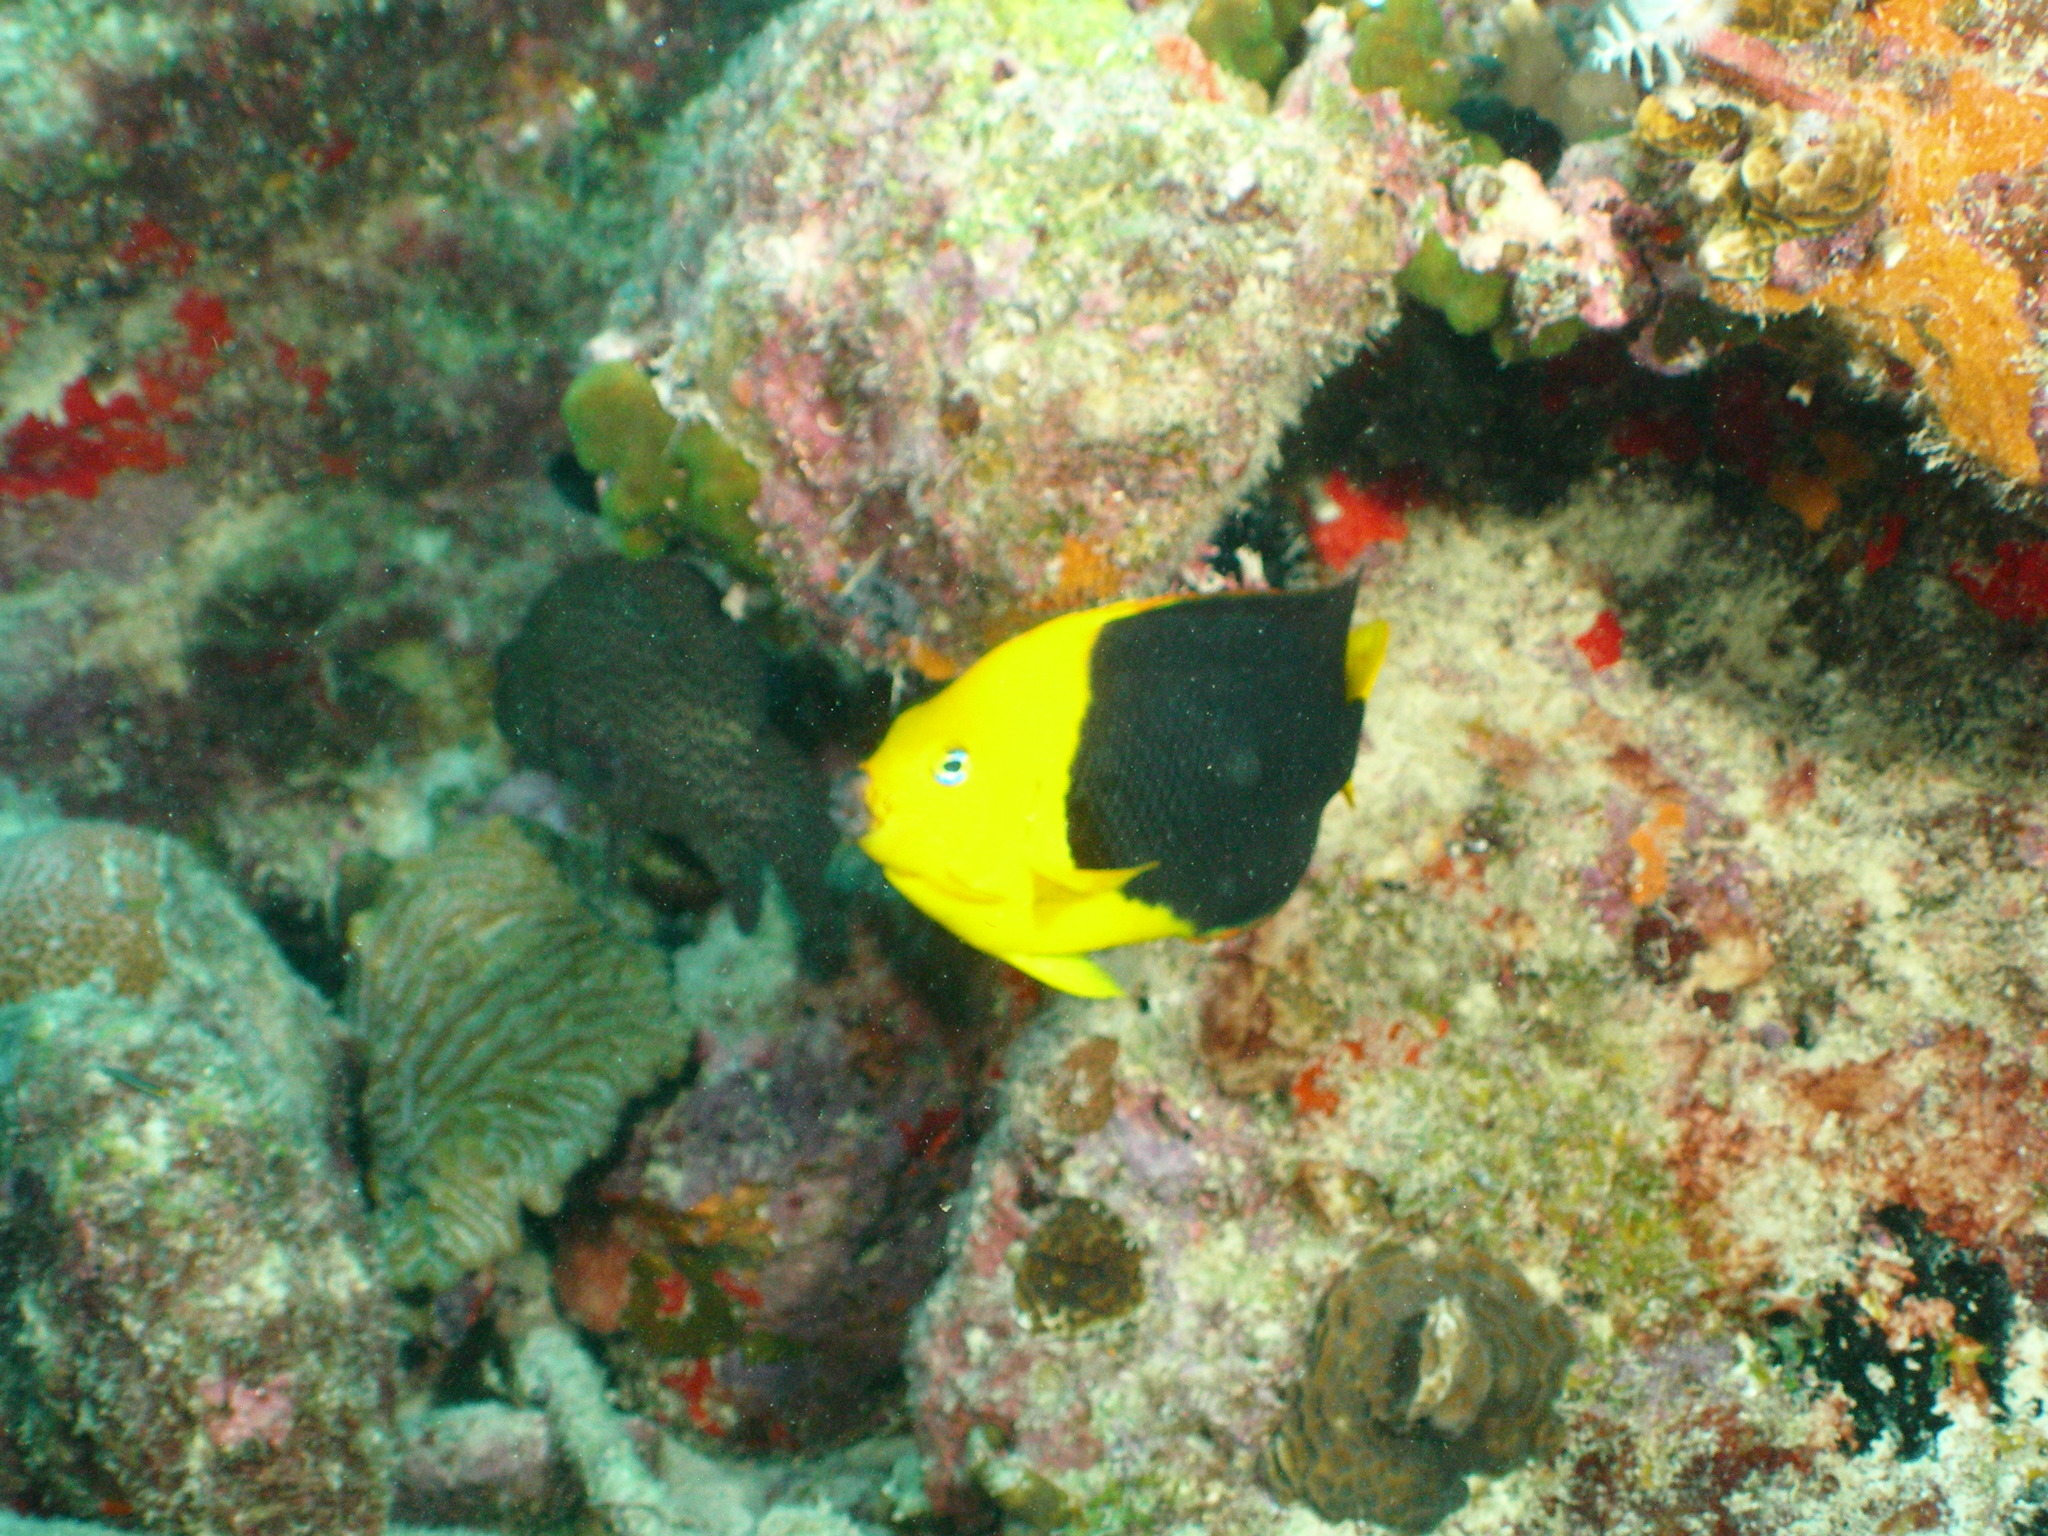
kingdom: Animalia
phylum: Chordata
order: Perciformes
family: Pomacanthidae
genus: Holacanthus
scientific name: Holacanthus tricolor
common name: Rock beauty
